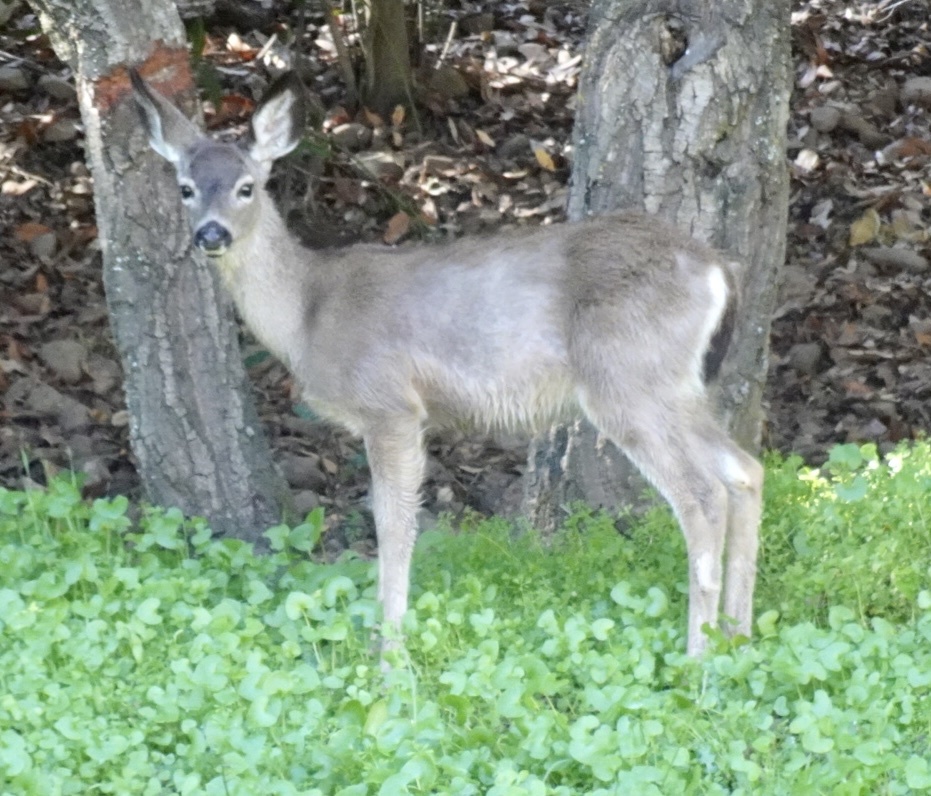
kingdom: Animalia
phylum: Chordata
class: Mammalia
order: Artiodactyla
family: Cervidae
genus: Odocoileus
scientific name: Odocoileus hemionus
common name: Mule deer
